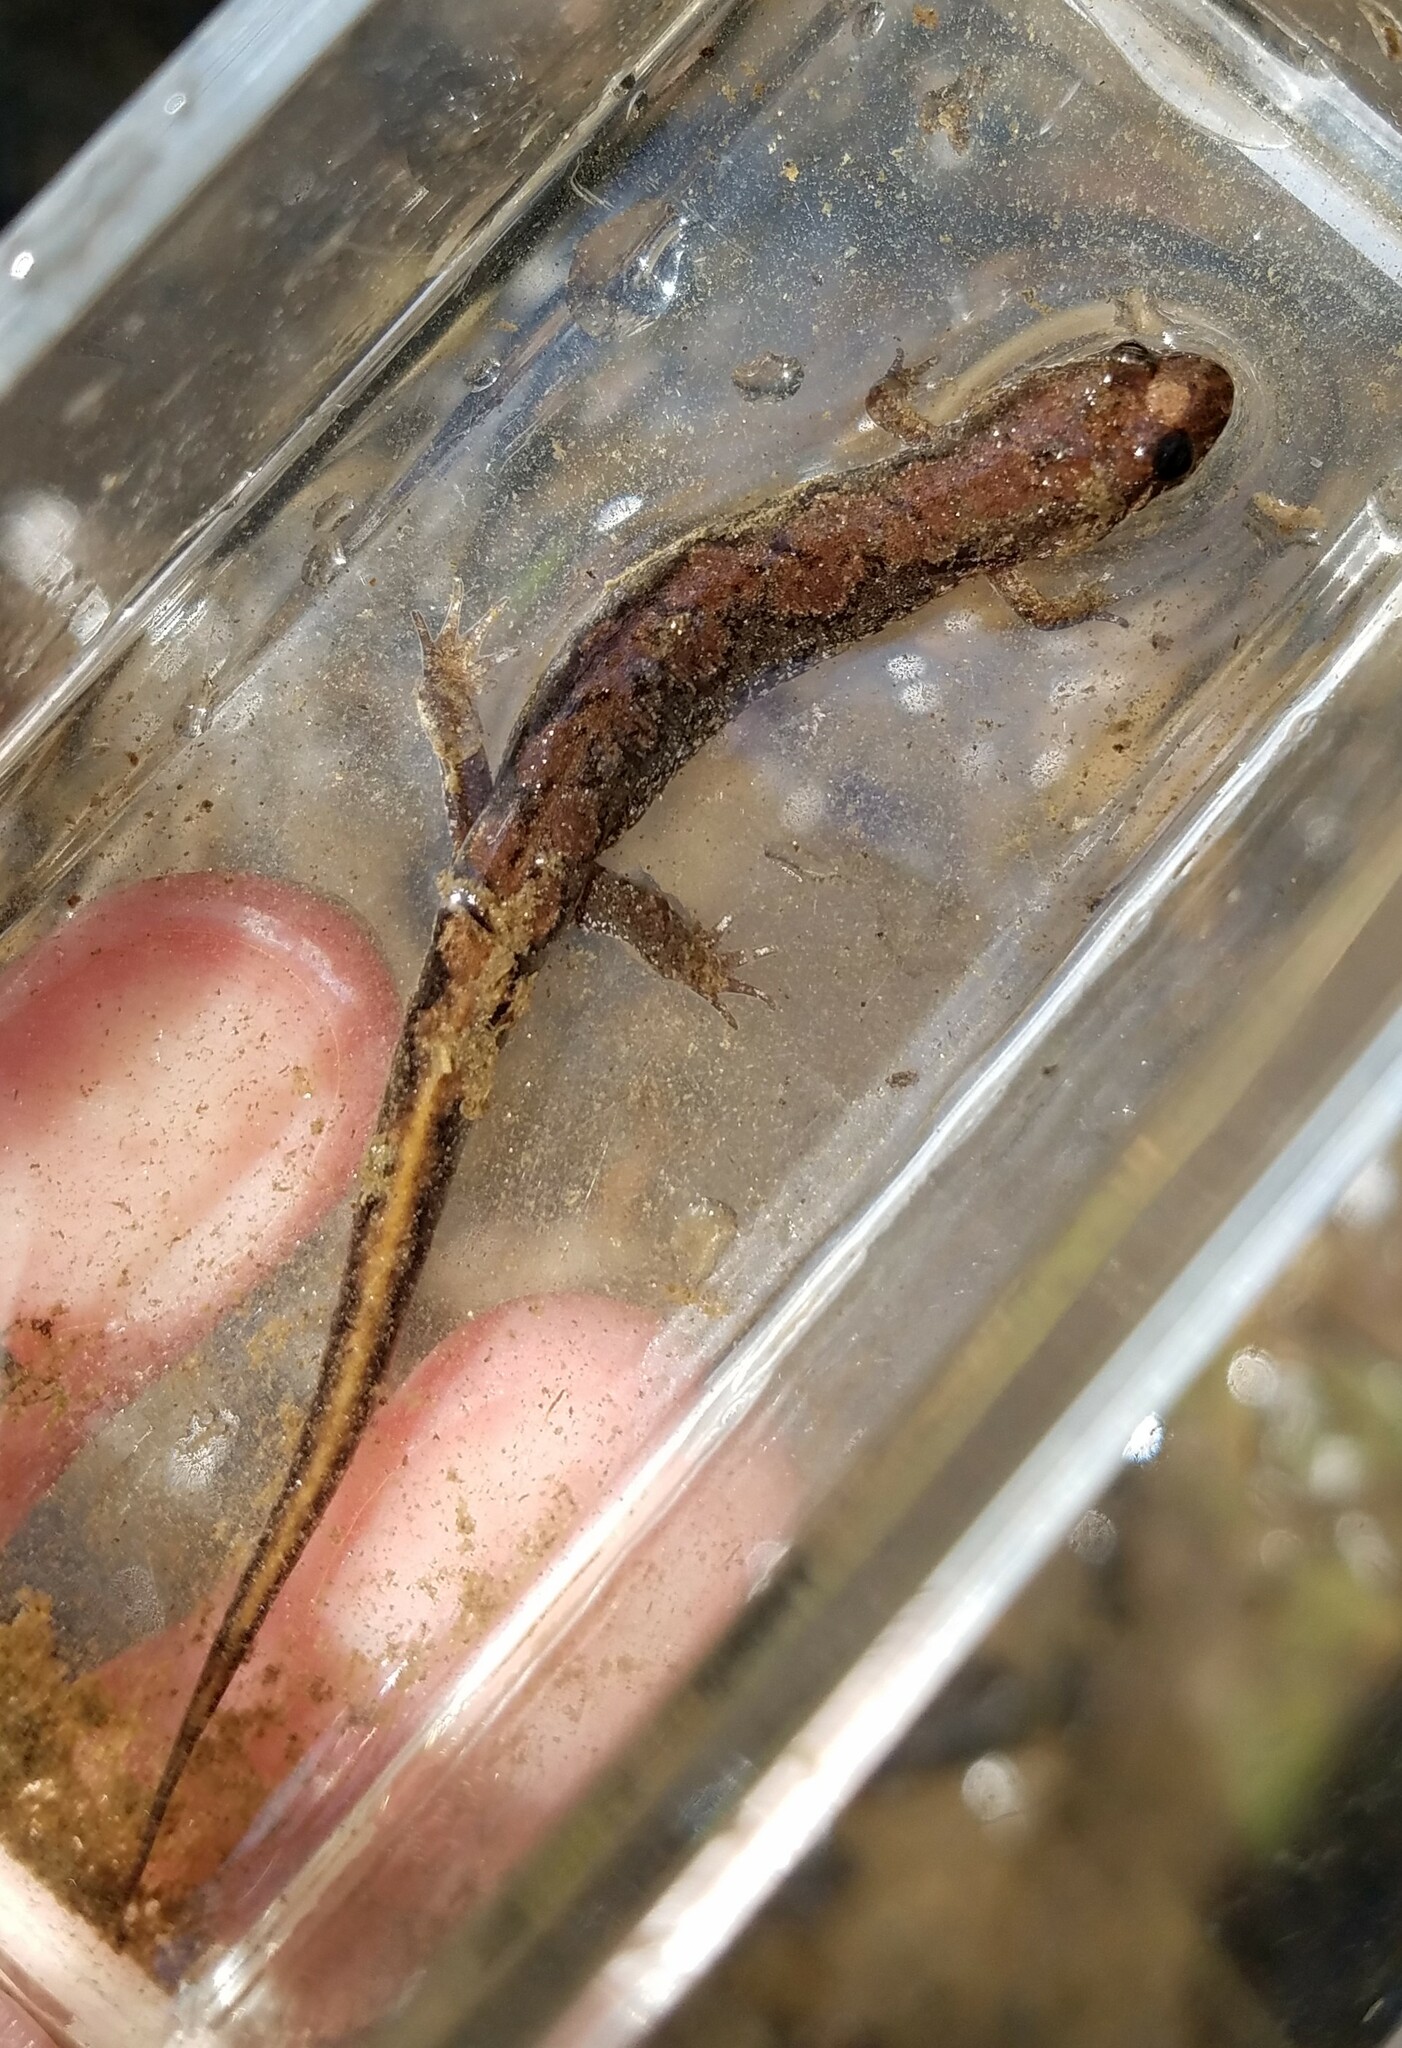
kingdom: Animalia
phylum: Chordata
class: Amphibia
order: Caudata
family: Plethodontidae
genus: Desmognathus
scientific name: Desmognathus ocoee
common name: Ocoee salamander
